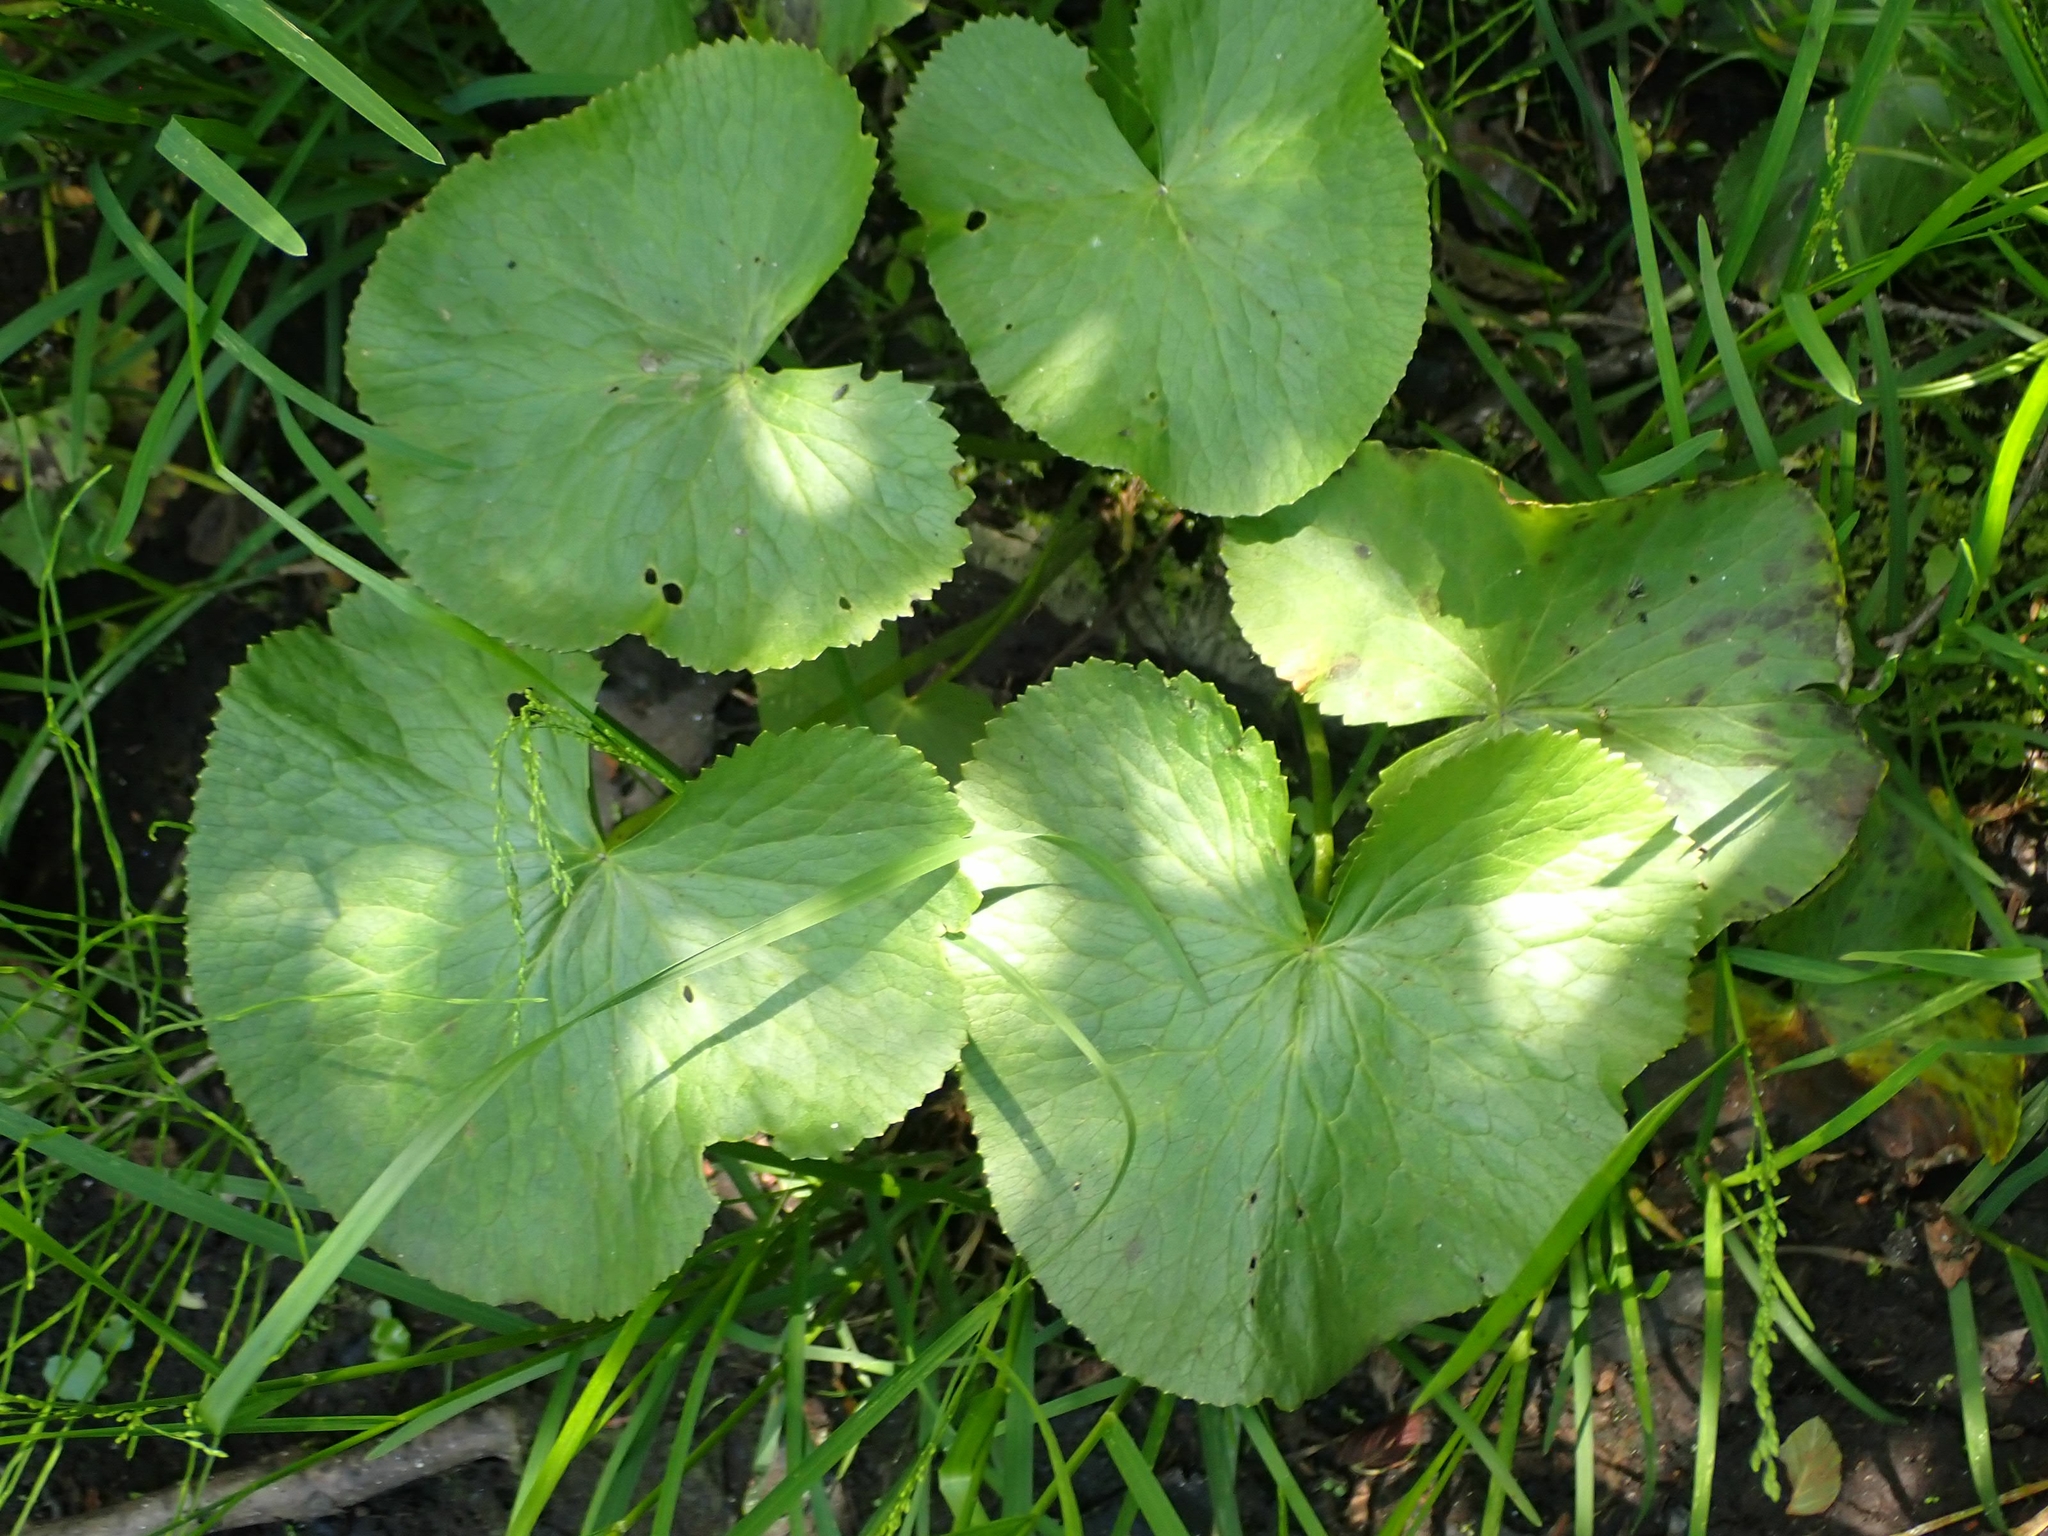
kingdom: Plantae
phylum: Tracheophyta
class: Magnoliopsida
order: Ranunculales
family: Ranunculaceae
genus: Caltha
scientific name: Caltha palustris
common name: Marsh marigold
